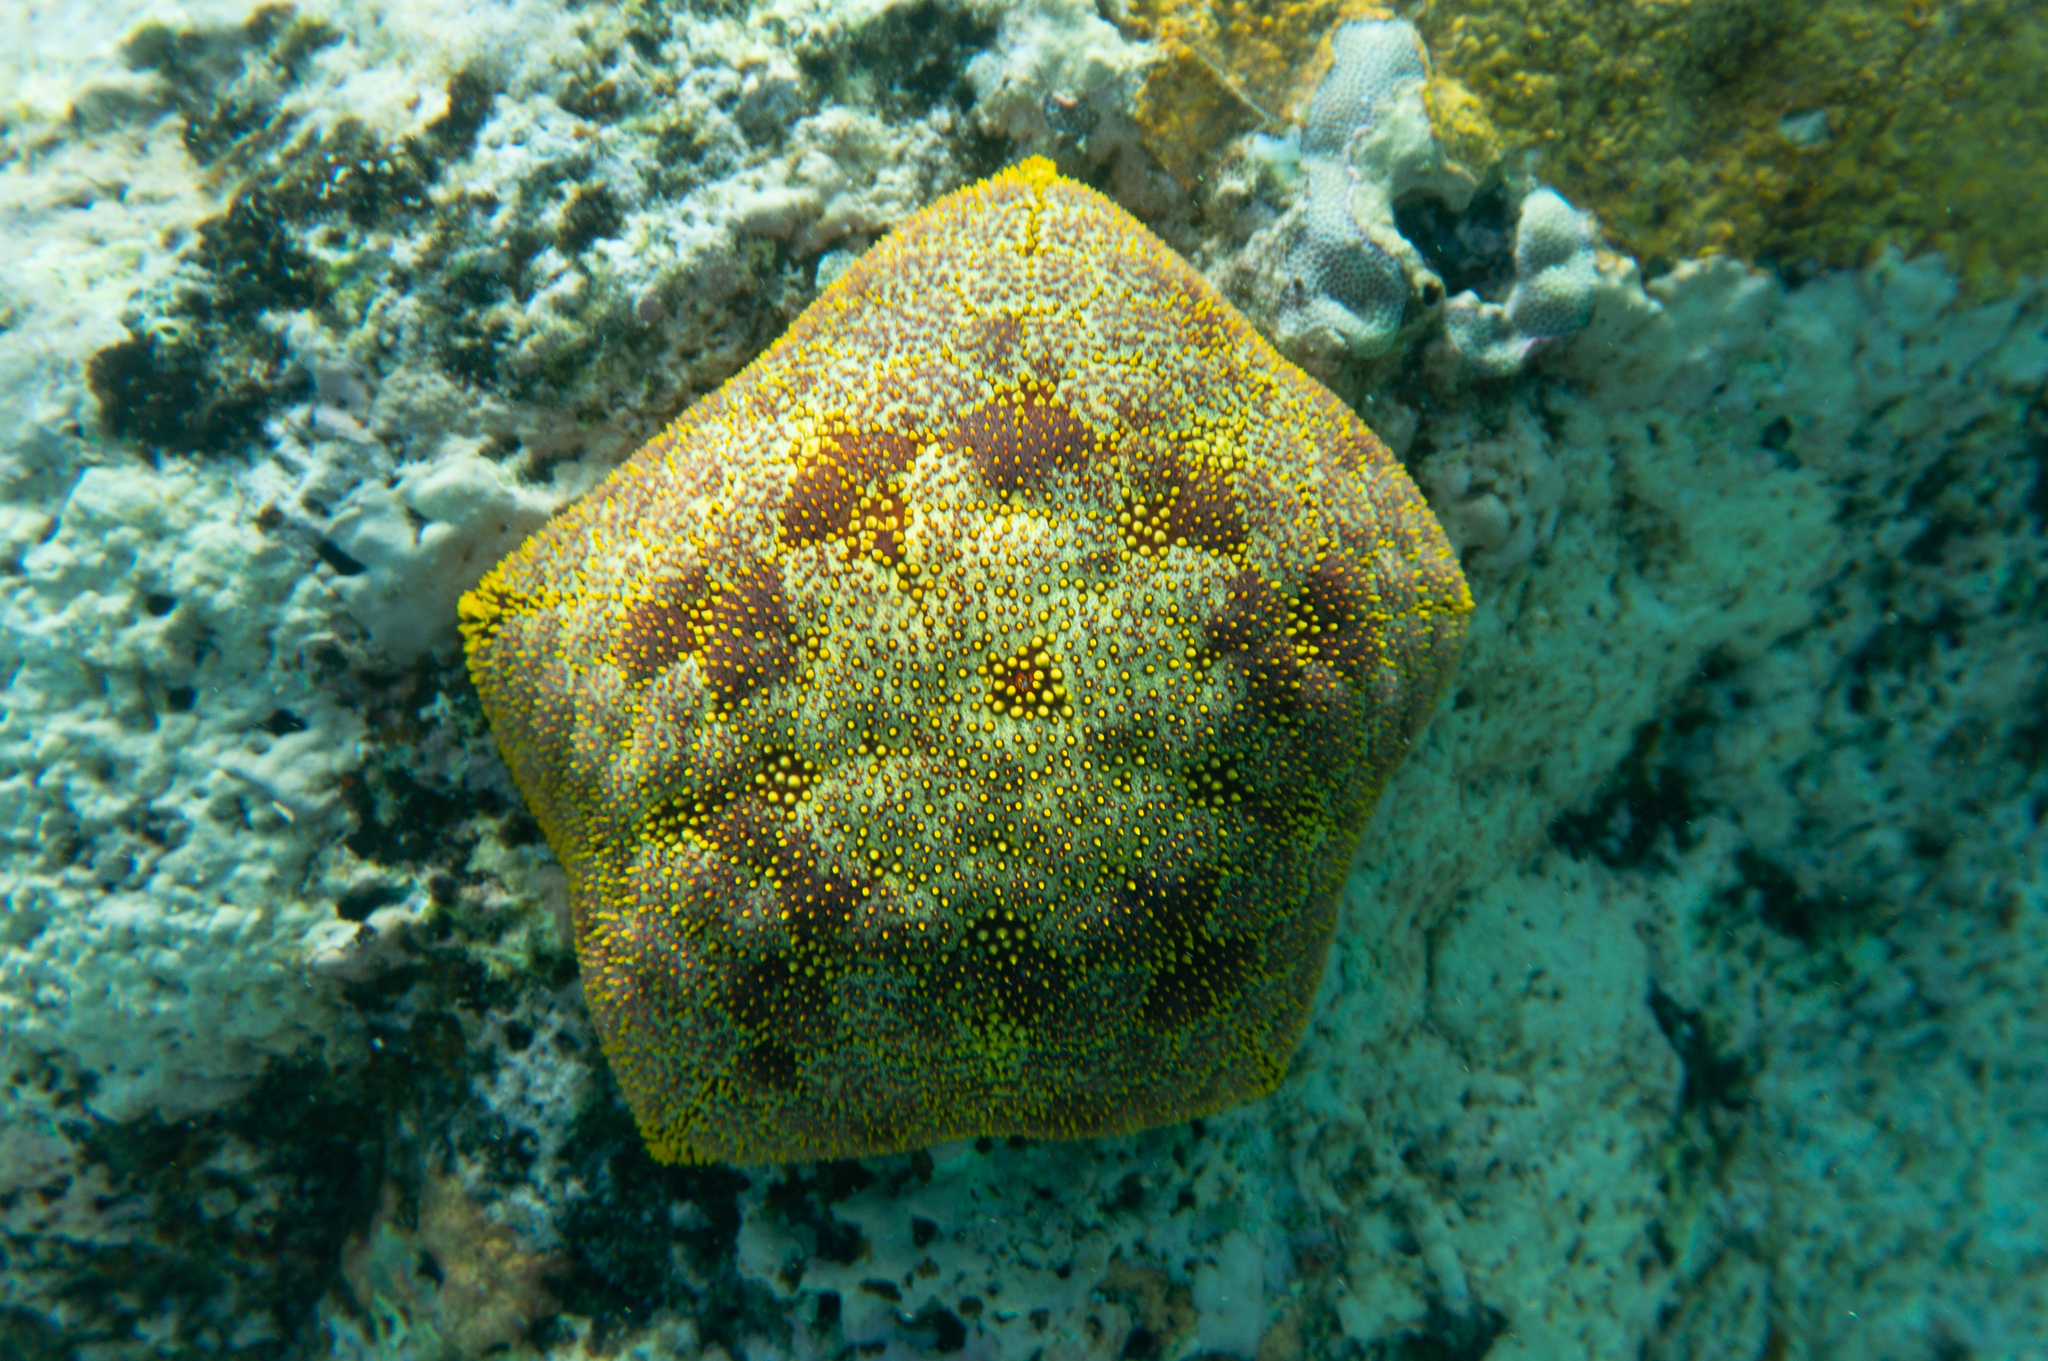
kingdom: Animalia
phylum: Echinodermata
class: Asteroidea
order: Valvatida
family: Oreasteridae
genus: Culcita
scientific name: Culcita novaeguineae
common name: Cushion star
